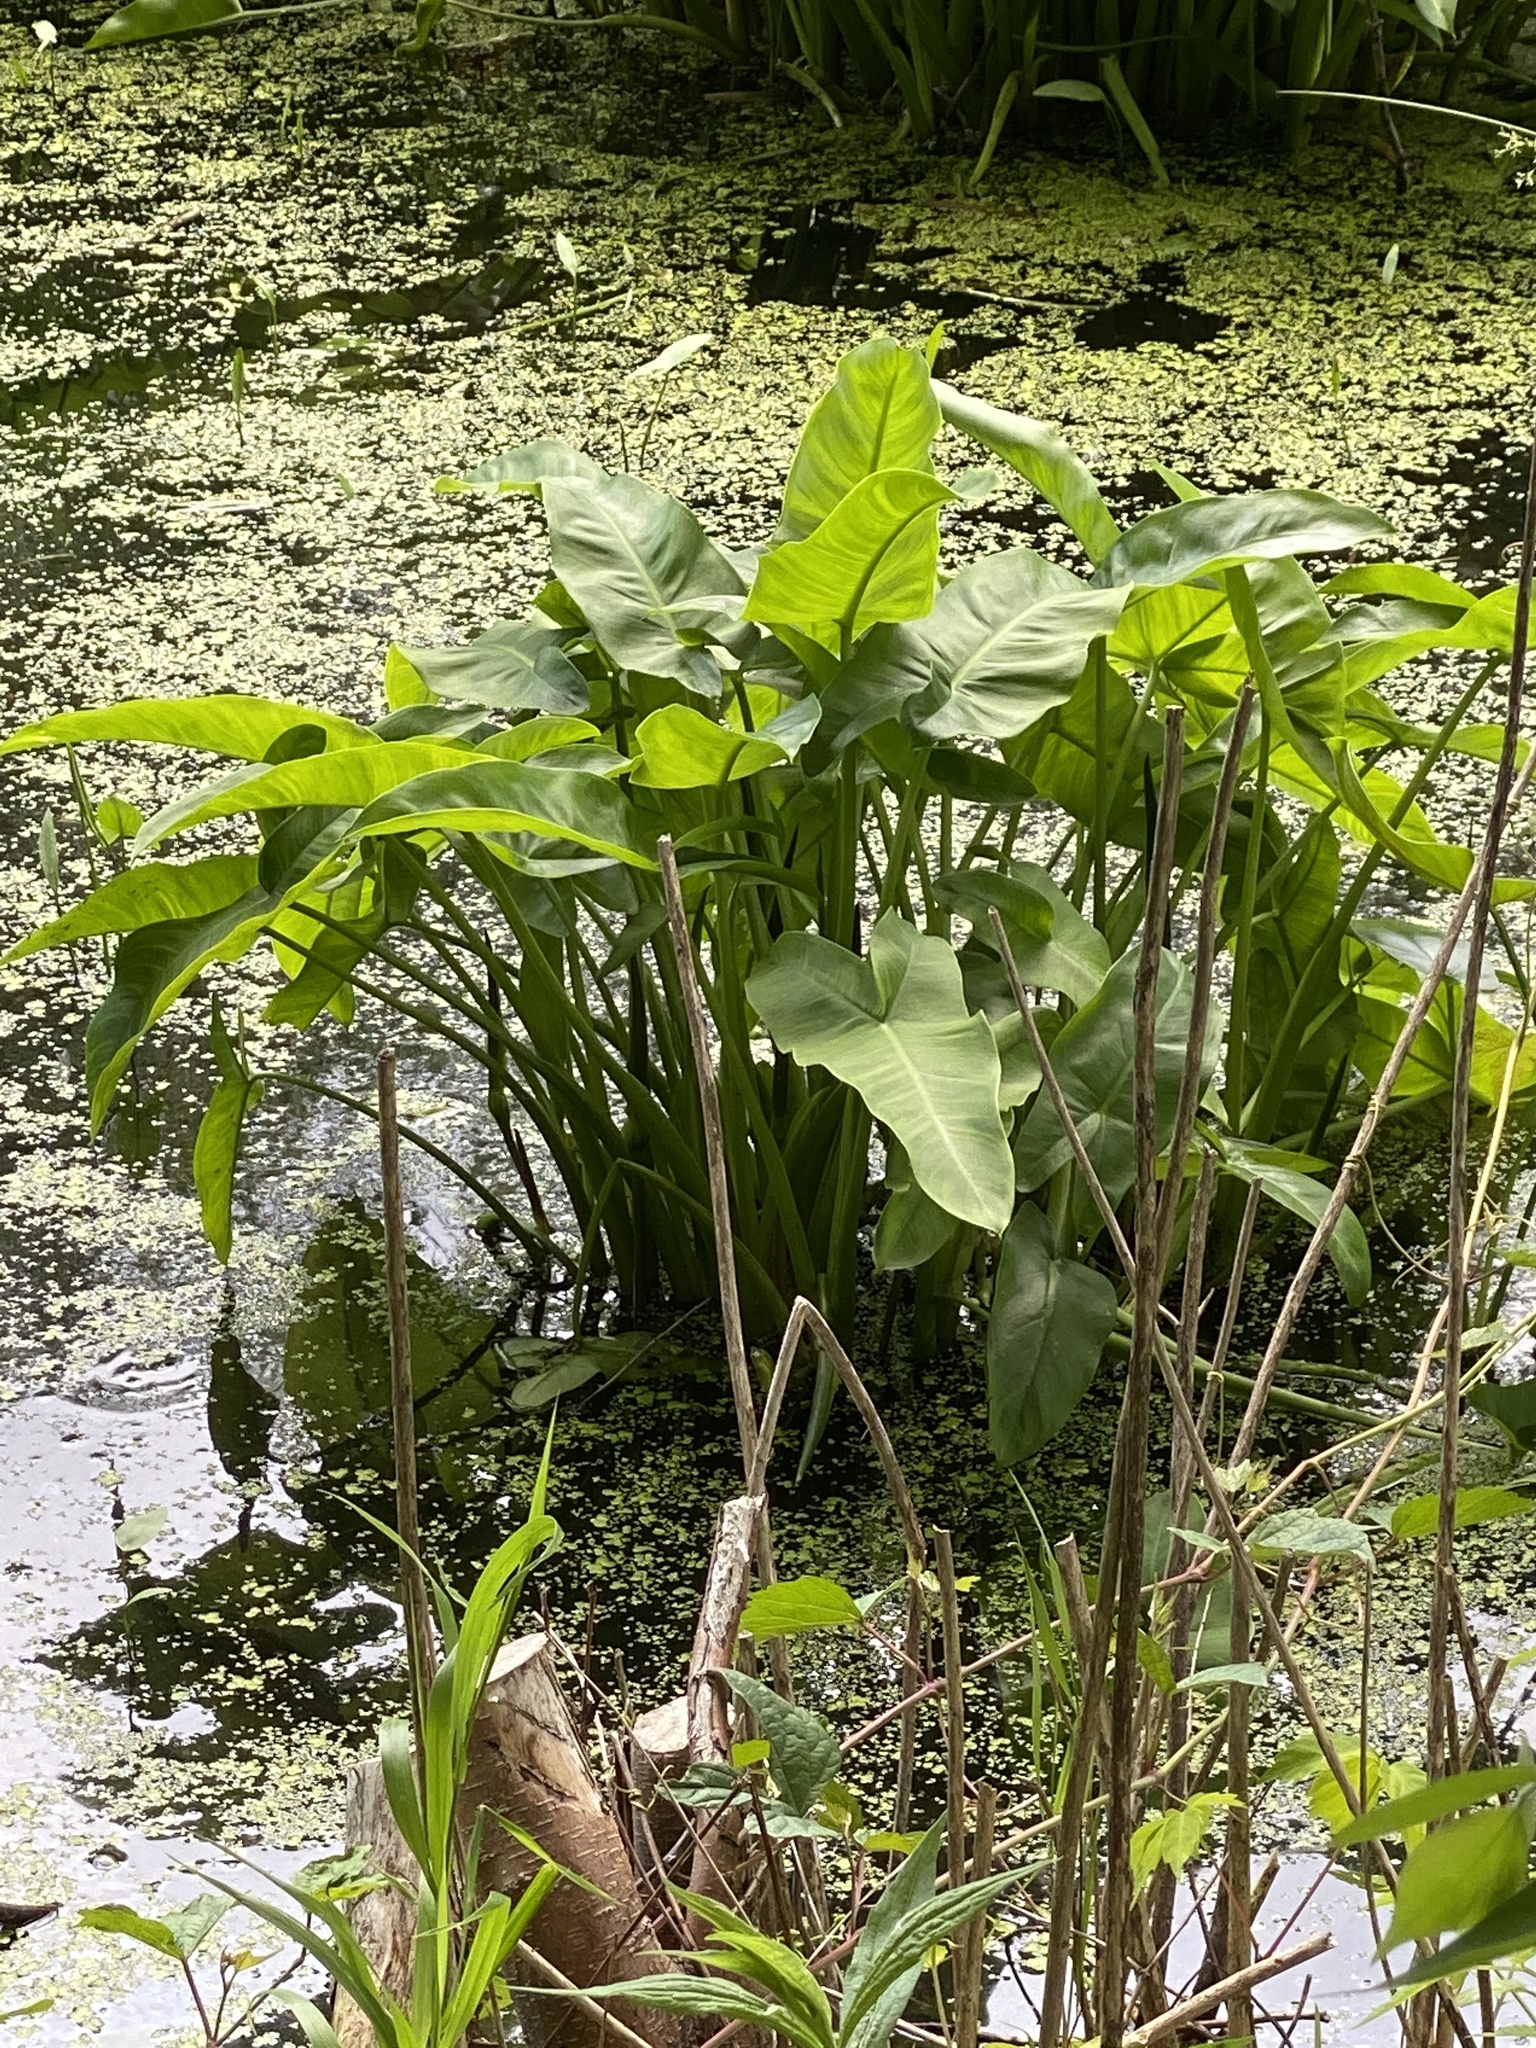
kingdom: Plantae
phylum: Tracheophyta
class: Liliopsida
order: Alismatales
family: Araceae
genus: Peltandra
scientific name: Peltandra virginica
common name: Arrow arum
